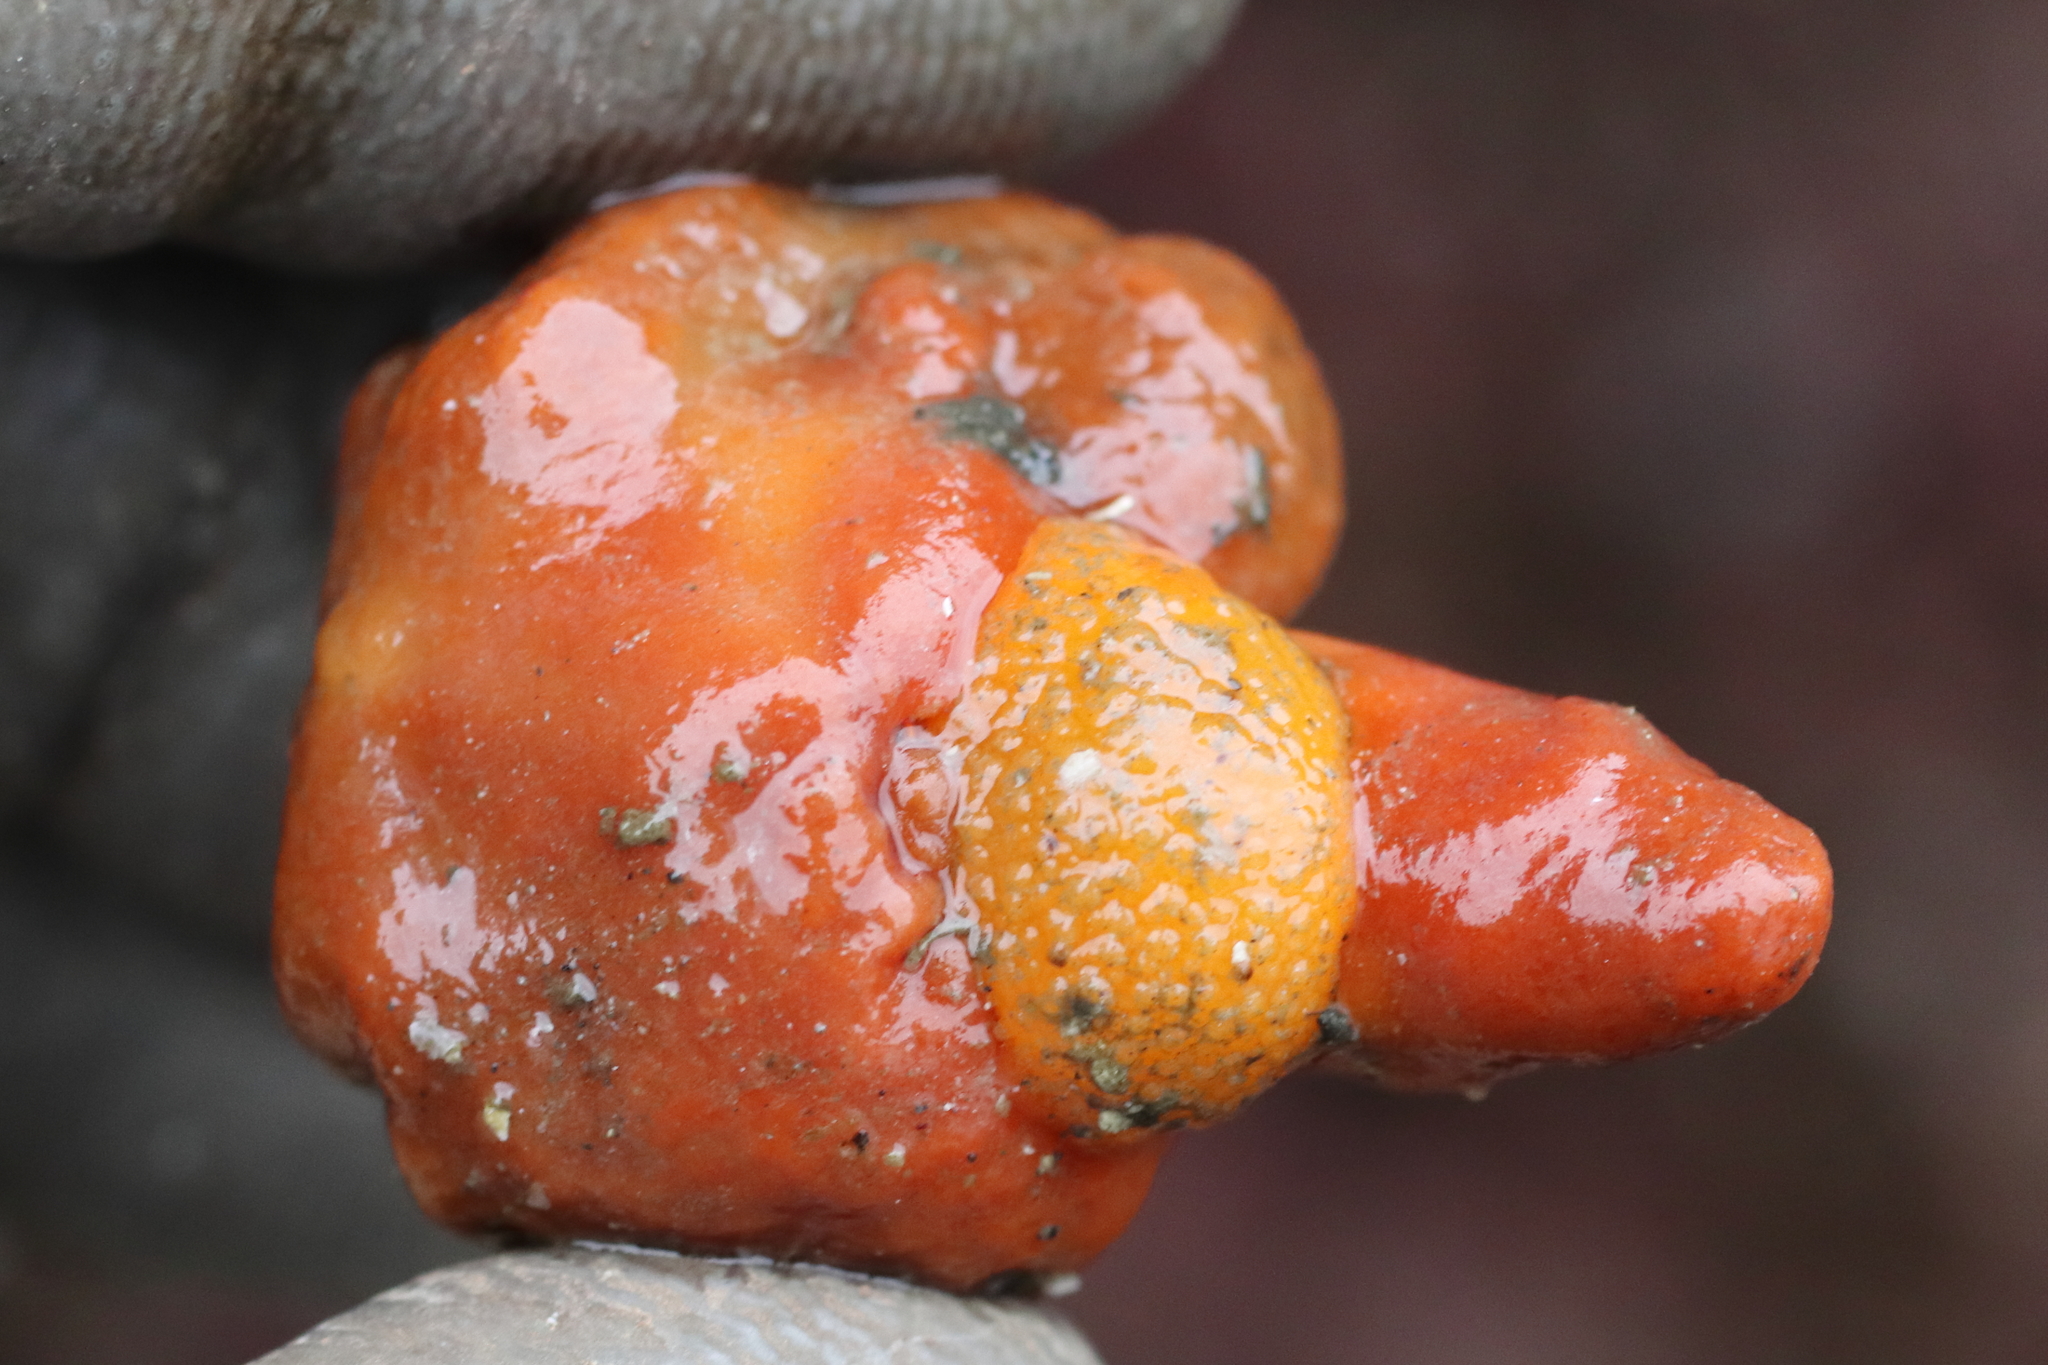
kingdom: Animalia
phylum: Arthropoda
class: Malacostraca
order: Decapoda
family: Paguridae
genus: Pagurus
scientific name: Pagurus beringanus
